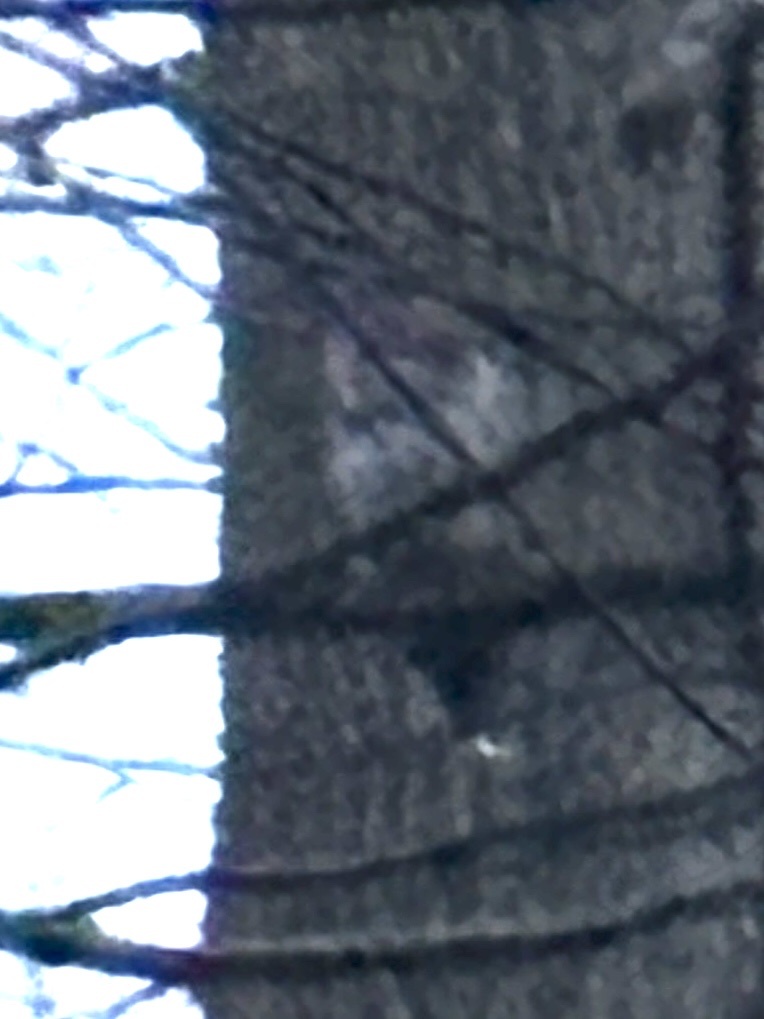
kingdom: Animalia
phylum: Chordata
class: Aves
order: Strigiformes
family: Strigidae
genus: Strix
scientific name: Strix varia
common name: Barred owl
